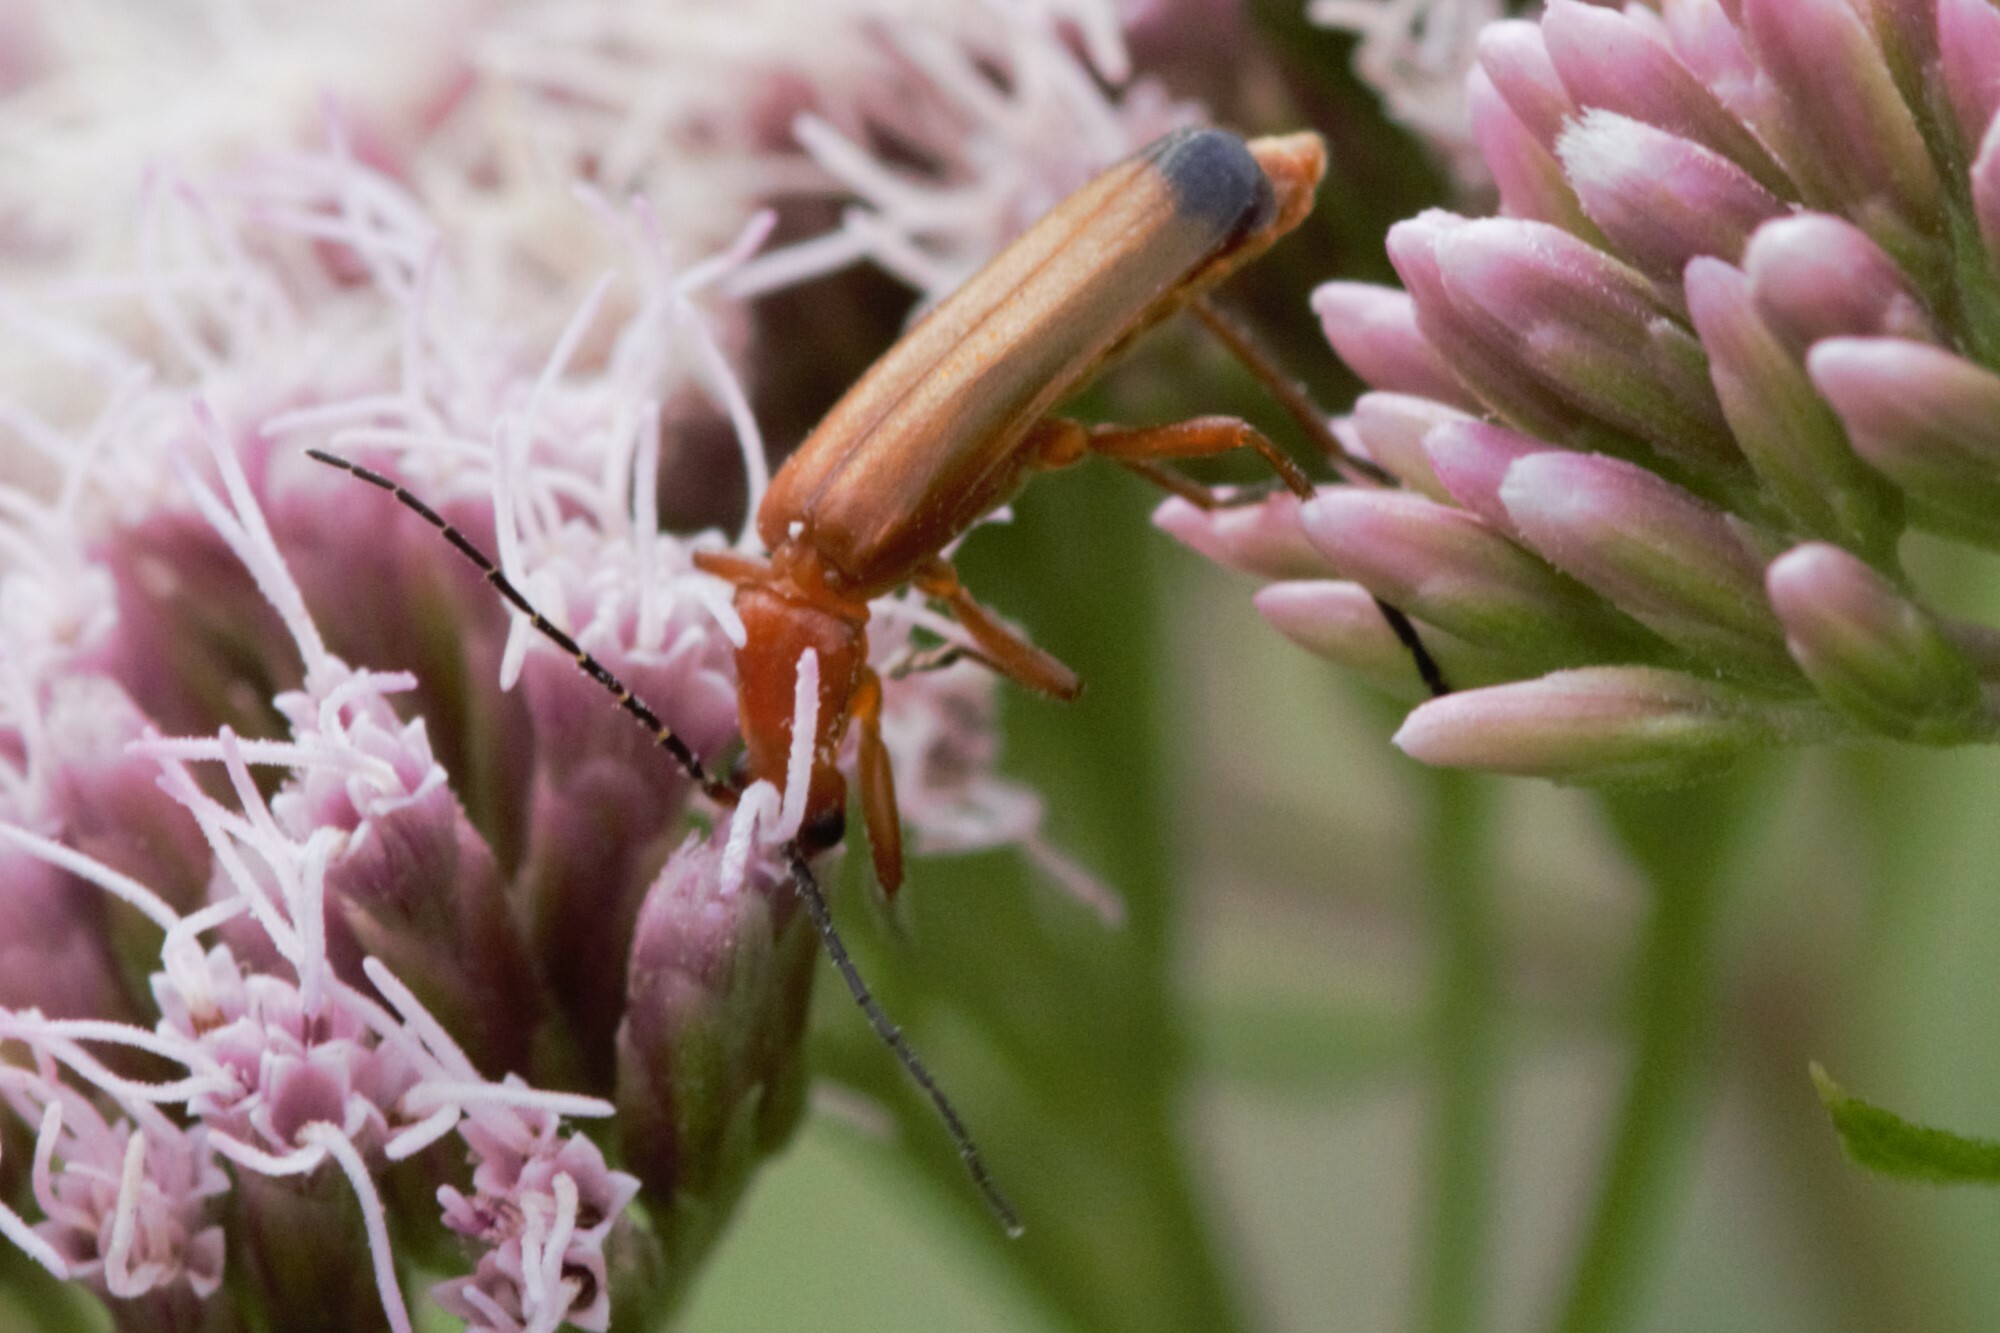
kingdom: Animalia
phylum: Arthropoda
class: Insecta
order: Coleoptera
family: Cantharidae
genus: Rhagonycha
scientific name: Rhagonycha fulva
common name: Common red soldier beetle
